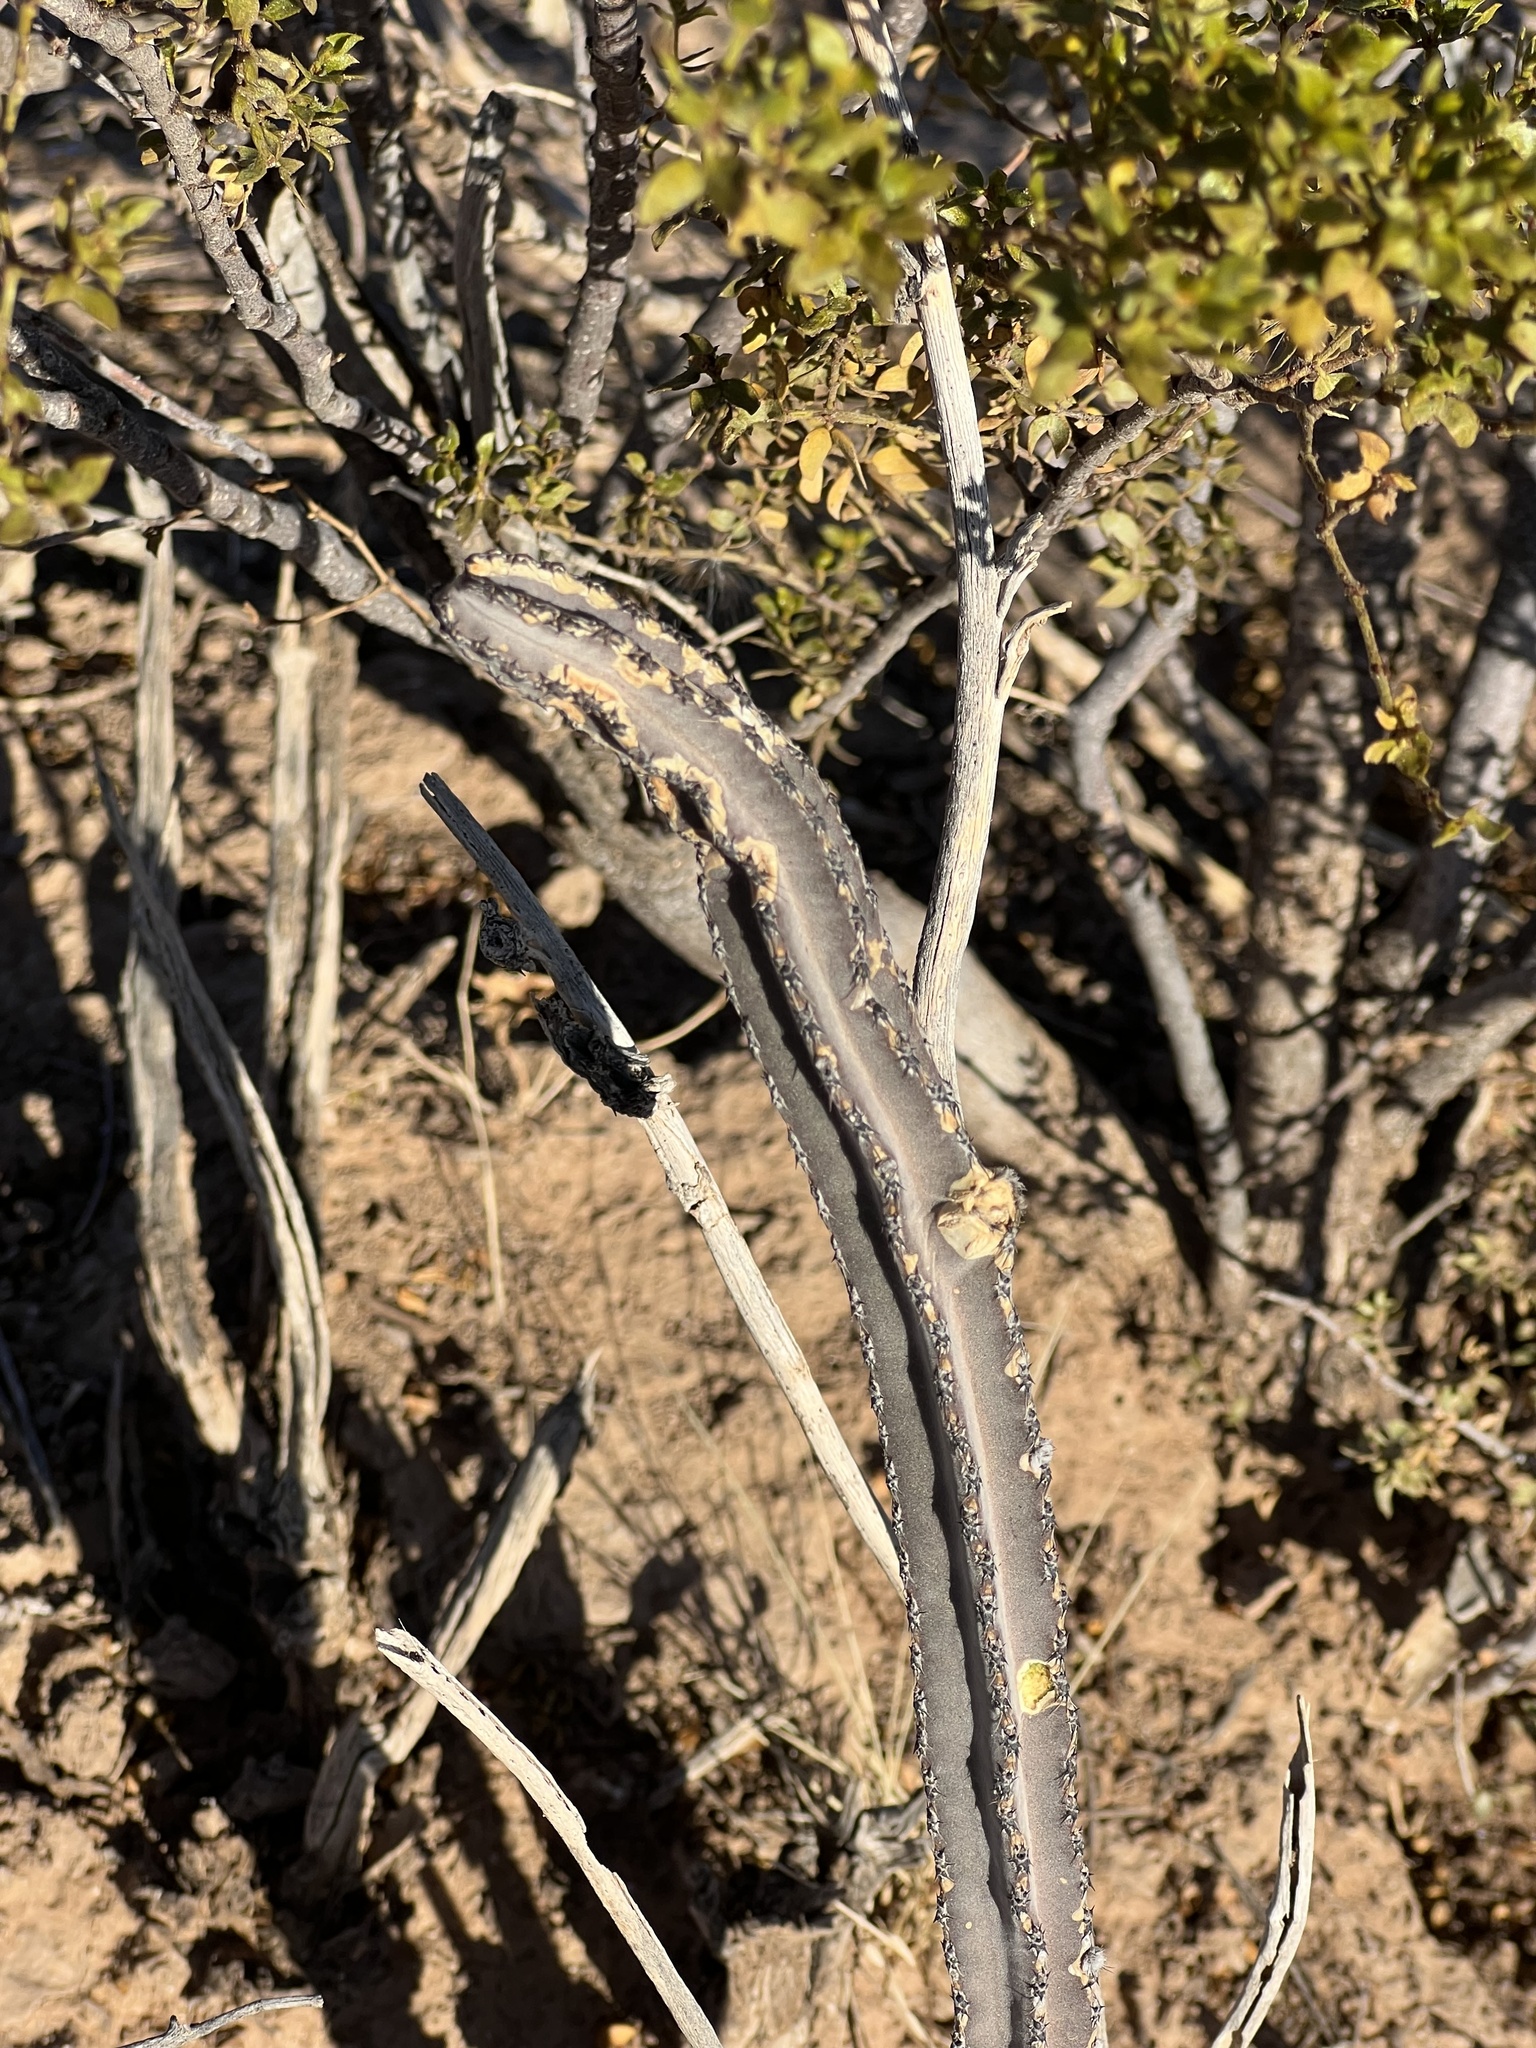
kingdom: Plantae
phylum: Tracheophyta
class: Magnoliopsida
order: Caryophyllales
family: Cactaceae
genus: Peniocereus
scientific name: Peniocereus greggii
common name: Desert night-blooming cereus
